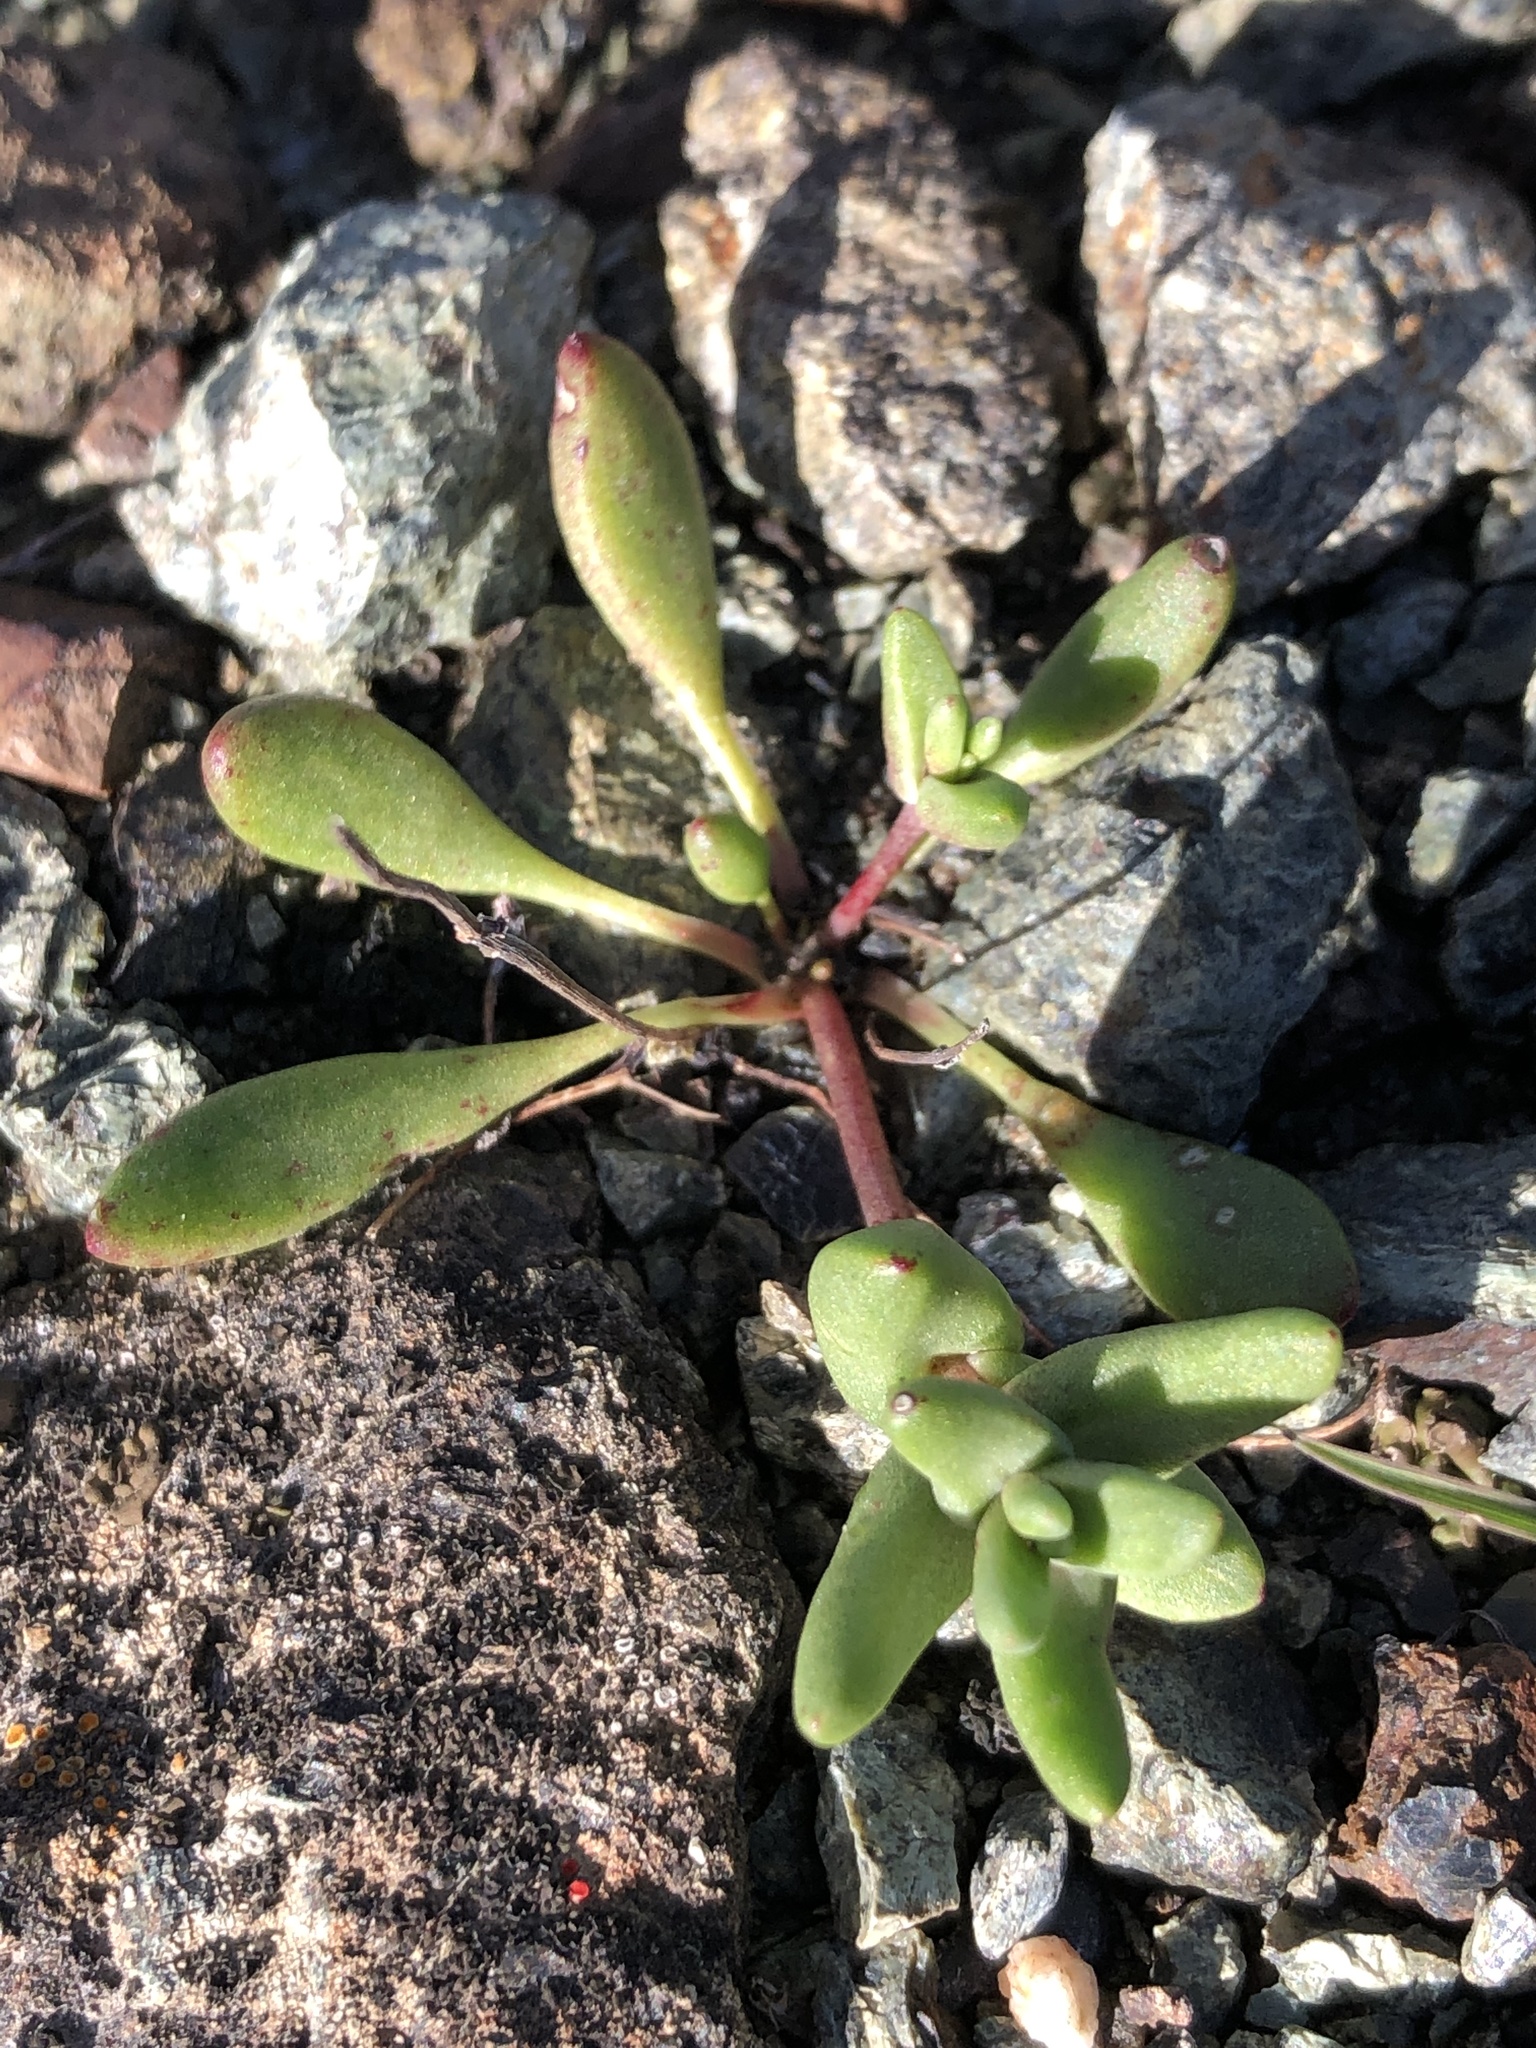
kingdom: Plantae
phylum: Tracheophyta
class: Magnoliopsida
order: Saxifragales
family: Crassulaceae
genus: Dudleya
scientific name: Dudleya blochmaniae
